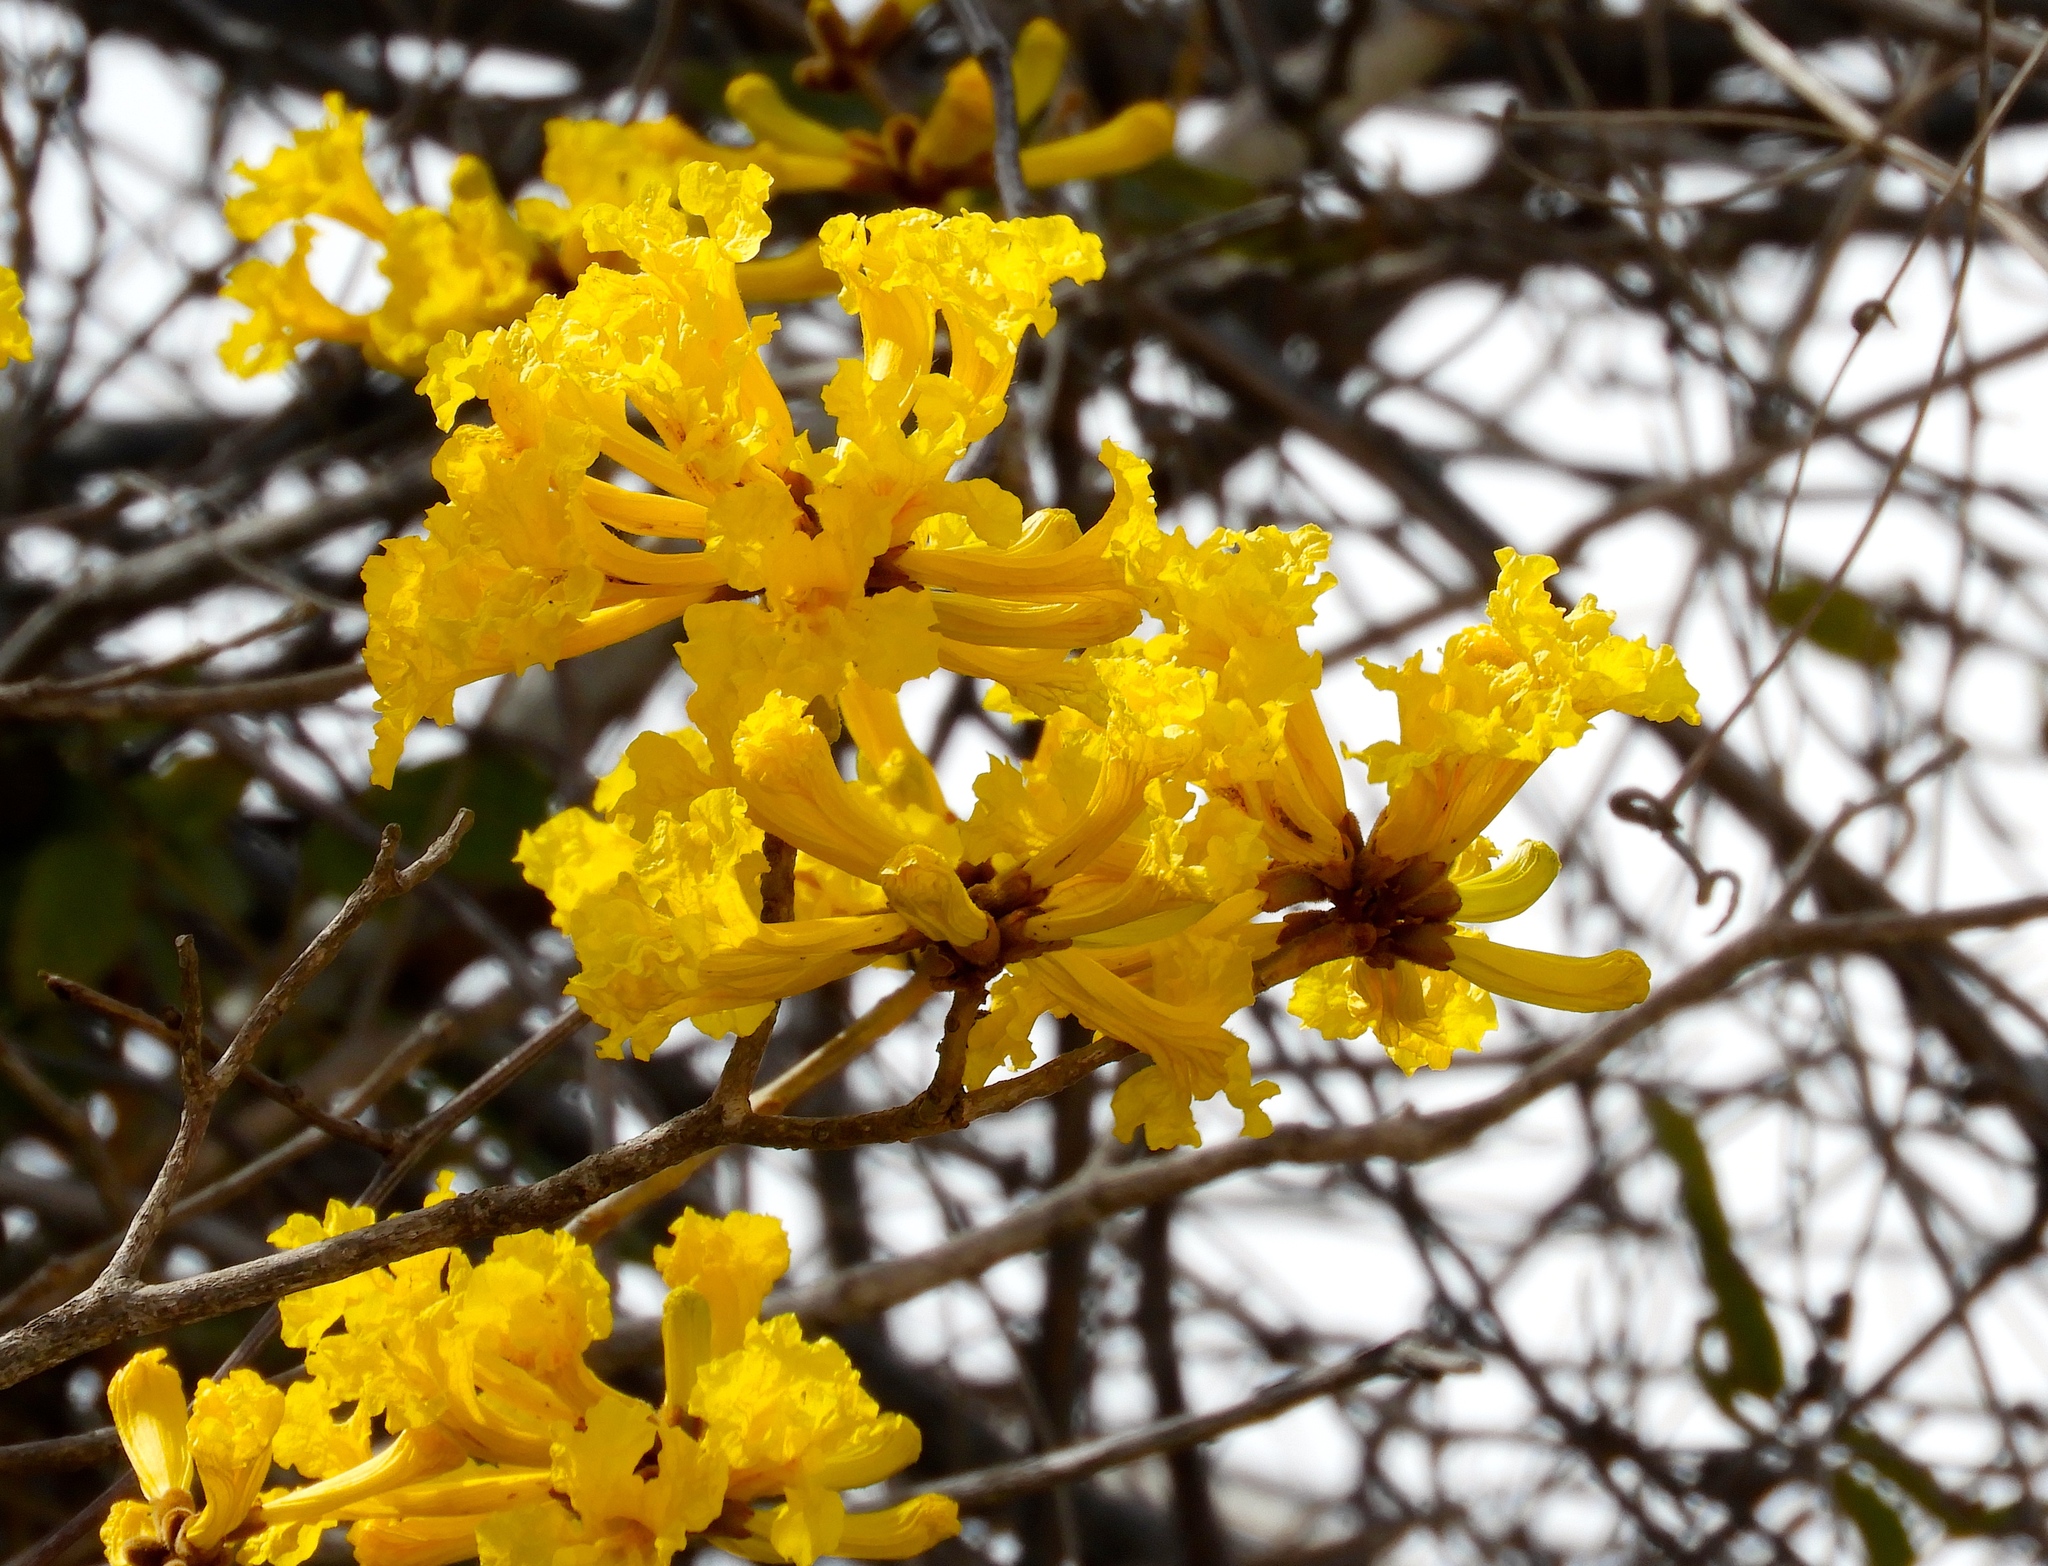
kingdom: Plantae
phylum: Tracheophyta
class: Magnoliopsida
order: Lamiales
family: Bignoniaceae
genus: Handroanthus
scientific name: Handroanthus chrysanthus
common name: Trumpet trees
